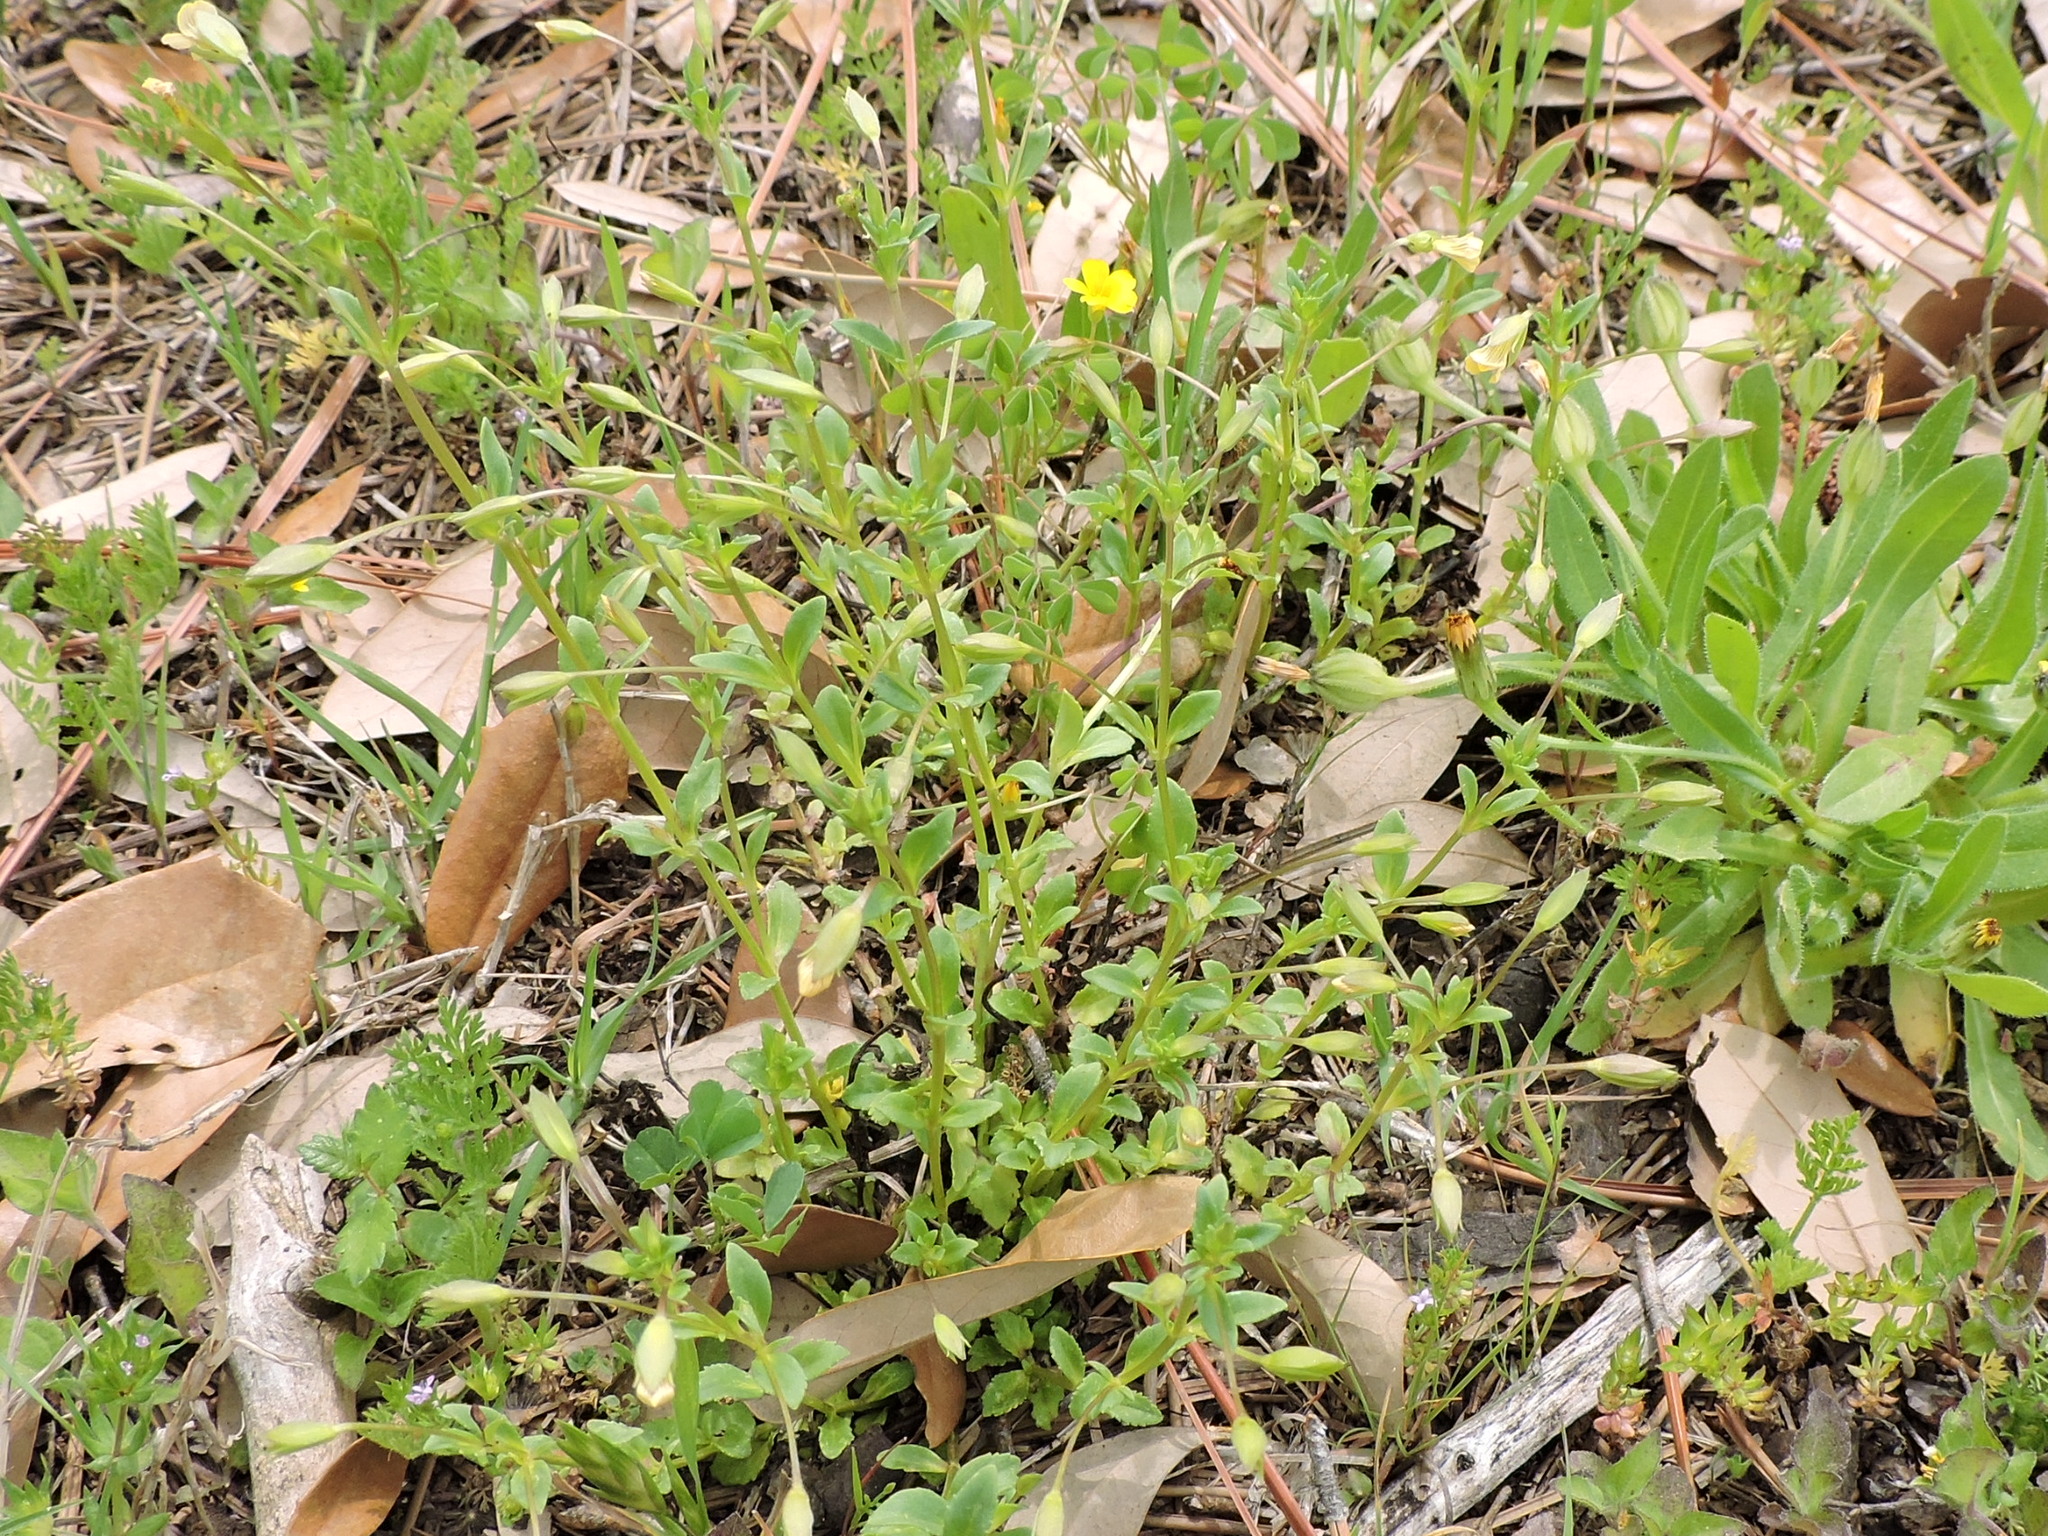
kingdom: Plantae
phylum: Tracheophyta
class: Magnoliopsida
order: Lamiales
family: Plantaginaceae
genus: Mecardonia
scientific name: Mecardonia procumbens
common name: Baby jump-up
